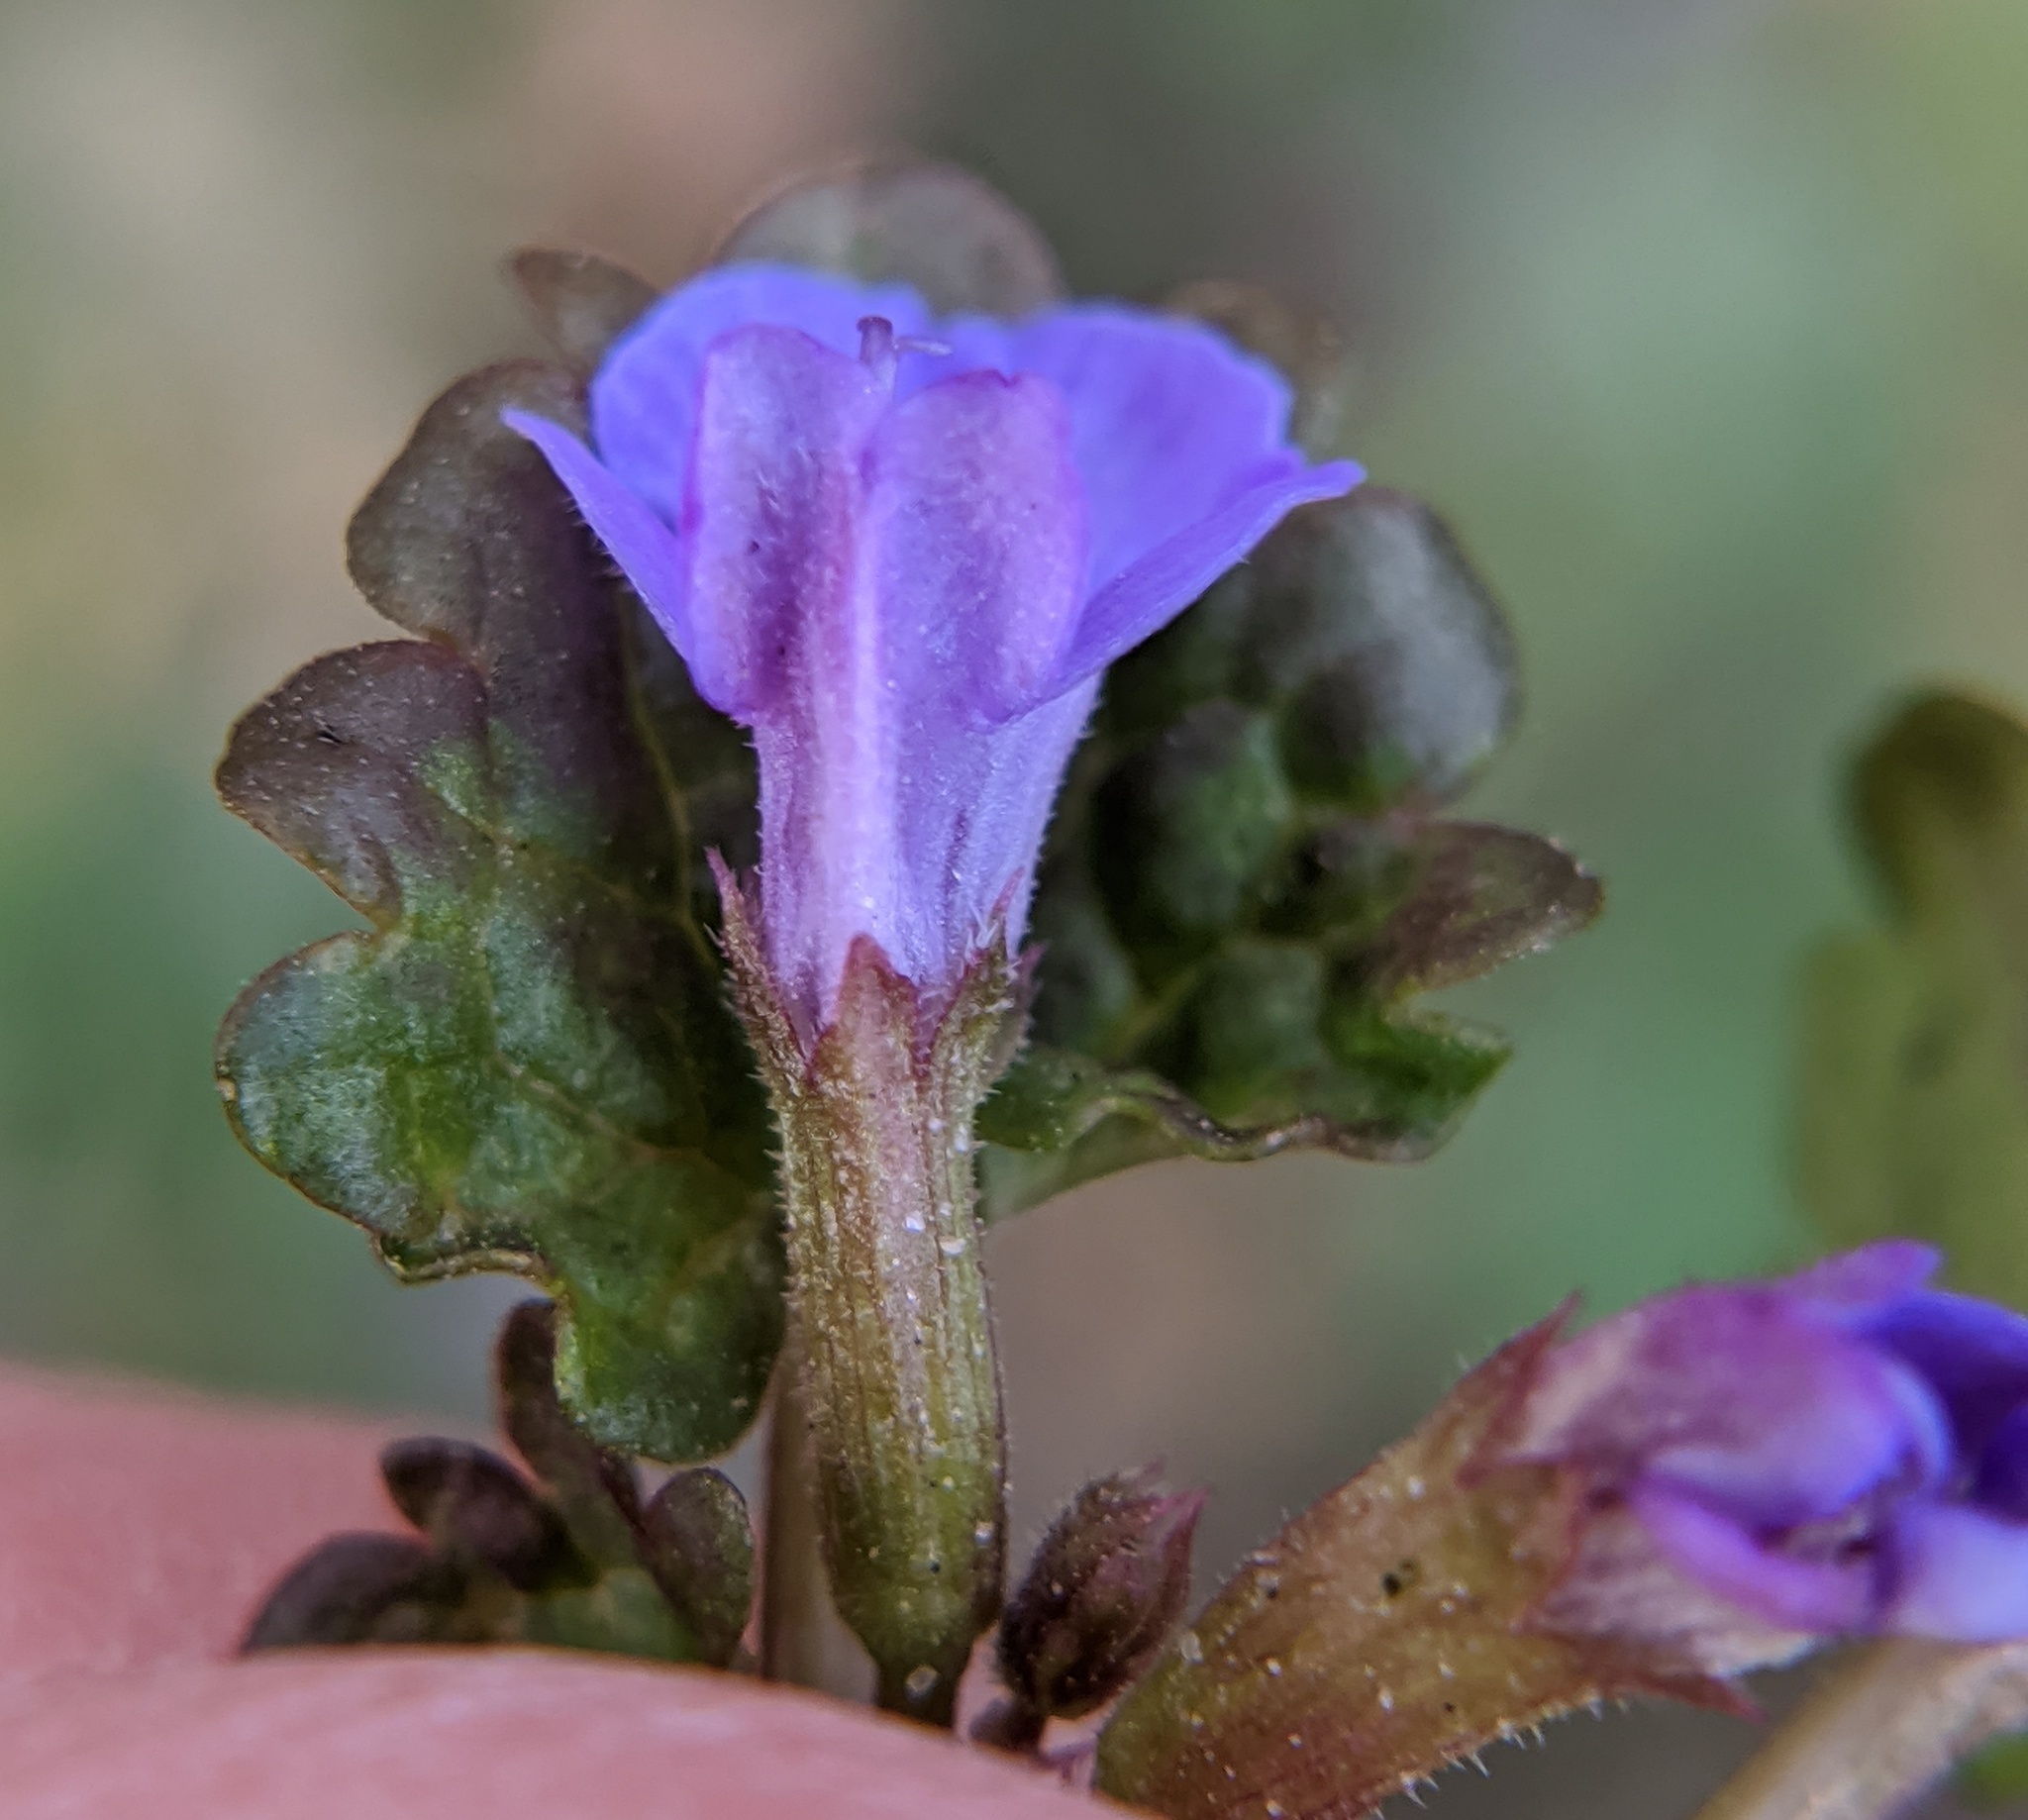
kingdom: Plantae
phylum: Tracheophyta
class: Magnoliopsida
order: Lamiales
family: Lamiaceae
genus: Glechoma
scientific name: Glechoma hederacea
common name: Ground ivy
